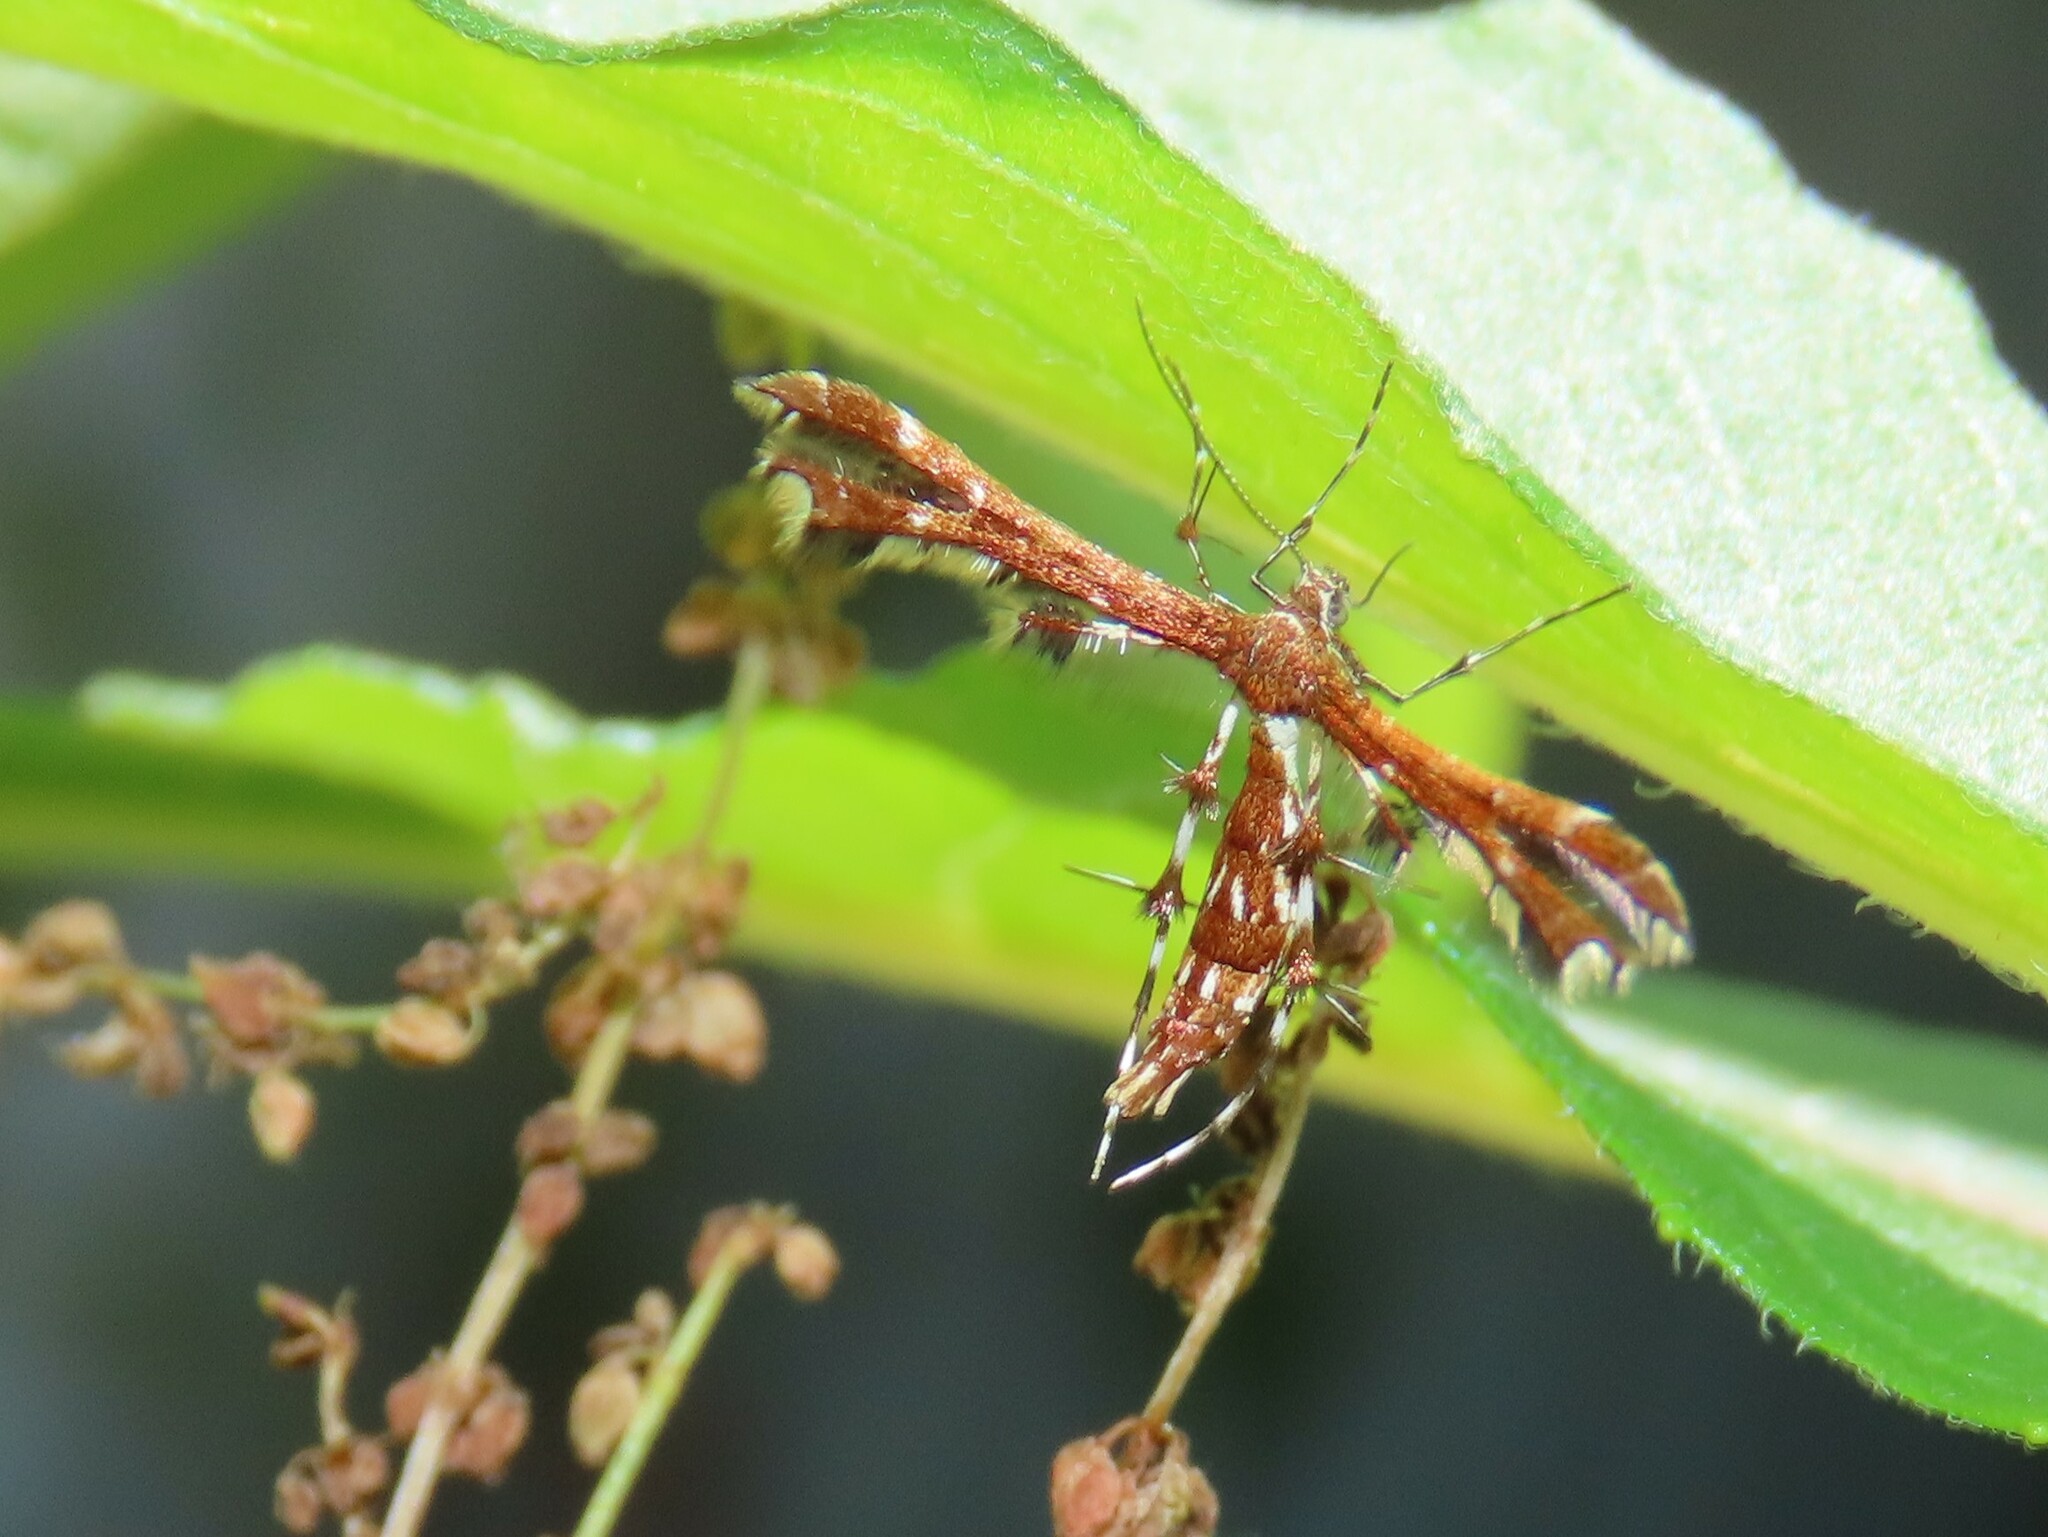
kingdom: Animalia
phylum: Arthropoda
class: Insecta
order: Lepidoptera
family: Pterophoridae
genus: Geina
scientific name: Geina
